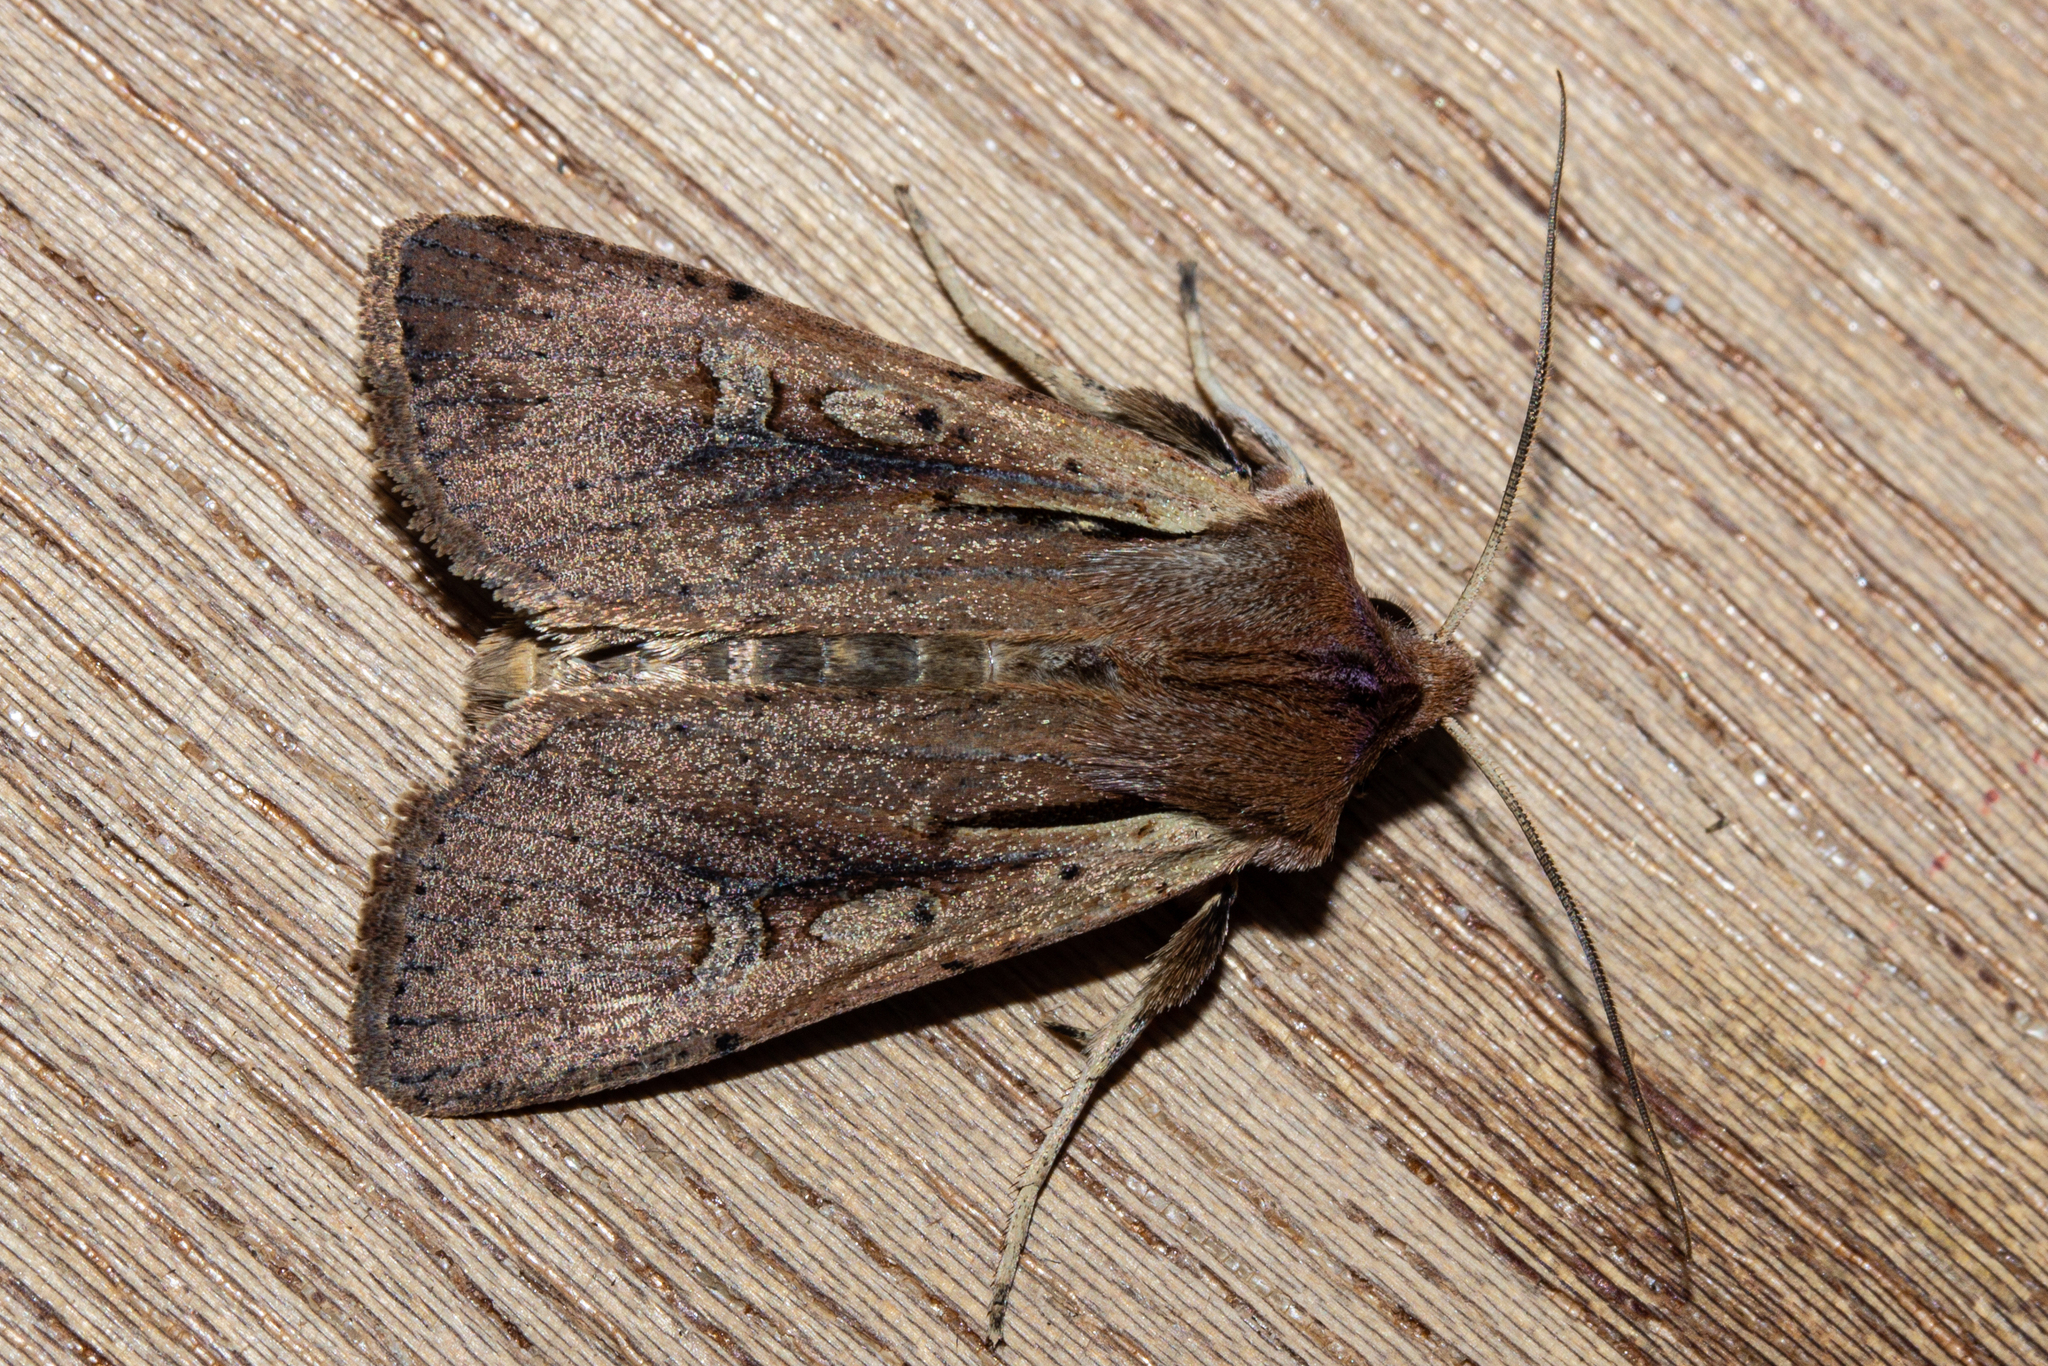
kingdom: Animalia
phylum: Arthropoda
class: Insecta
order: Lepidoptera
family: Noctuidae
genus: Ichneutica
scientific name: Ichneutica atristriga
